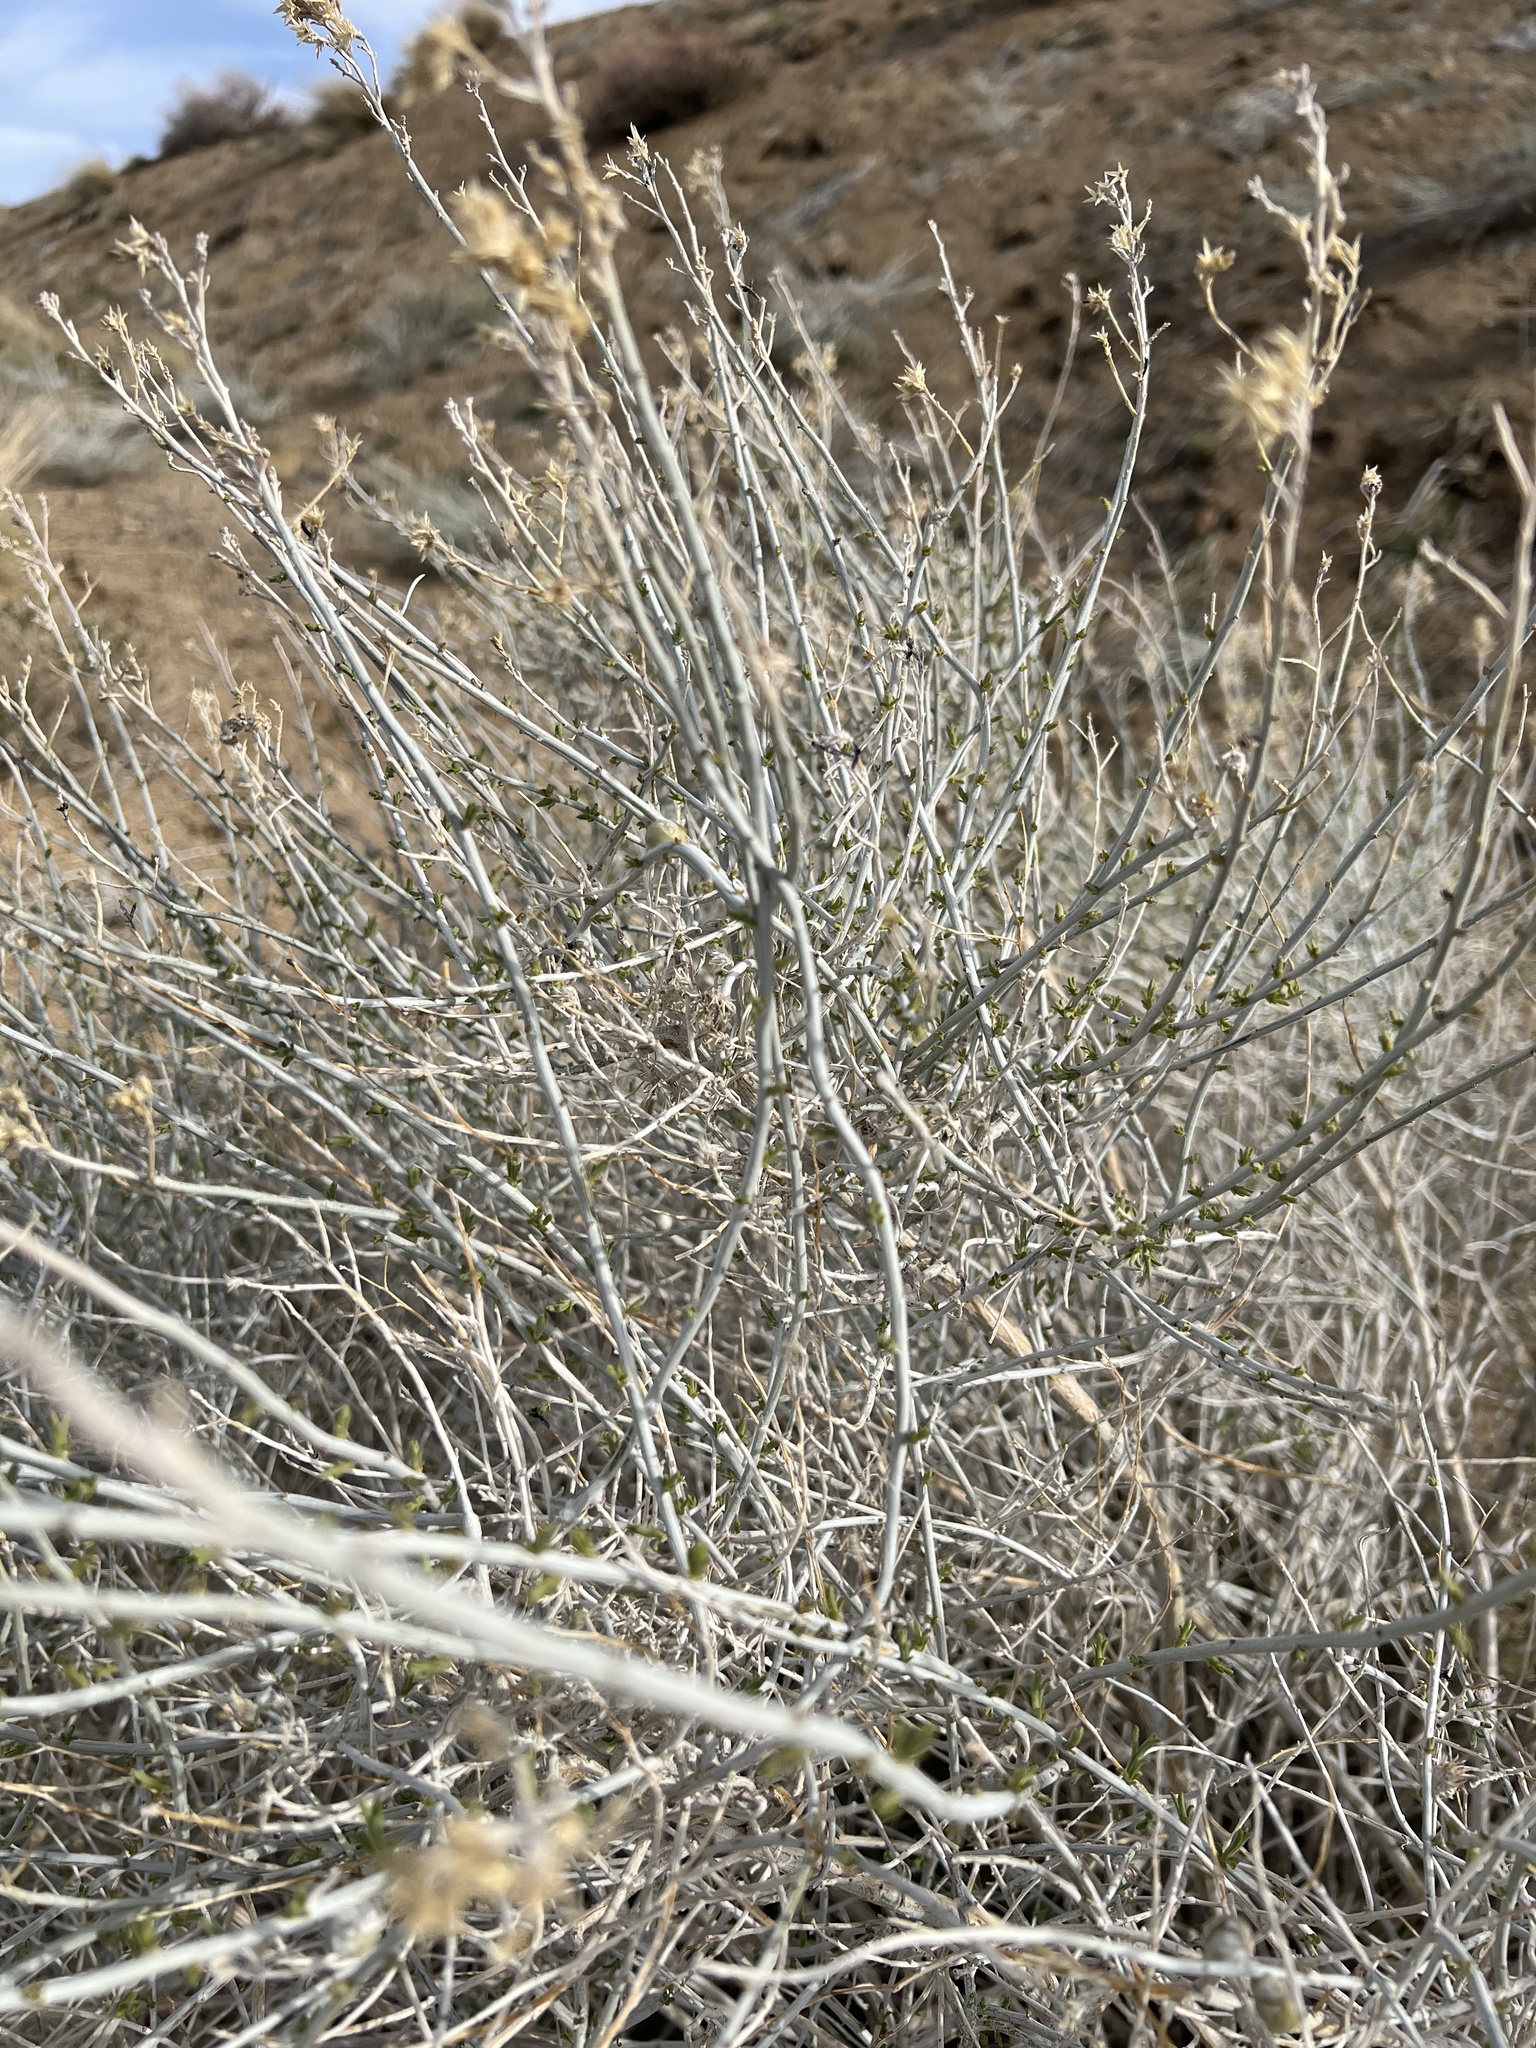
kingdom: Plantae
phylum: Tracheophyta
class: Magnoliopsida
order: Asterales
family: Asteraceae
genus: Ericameria
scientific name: Ericameria nauseosa
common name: Rubber rabbitbrush
